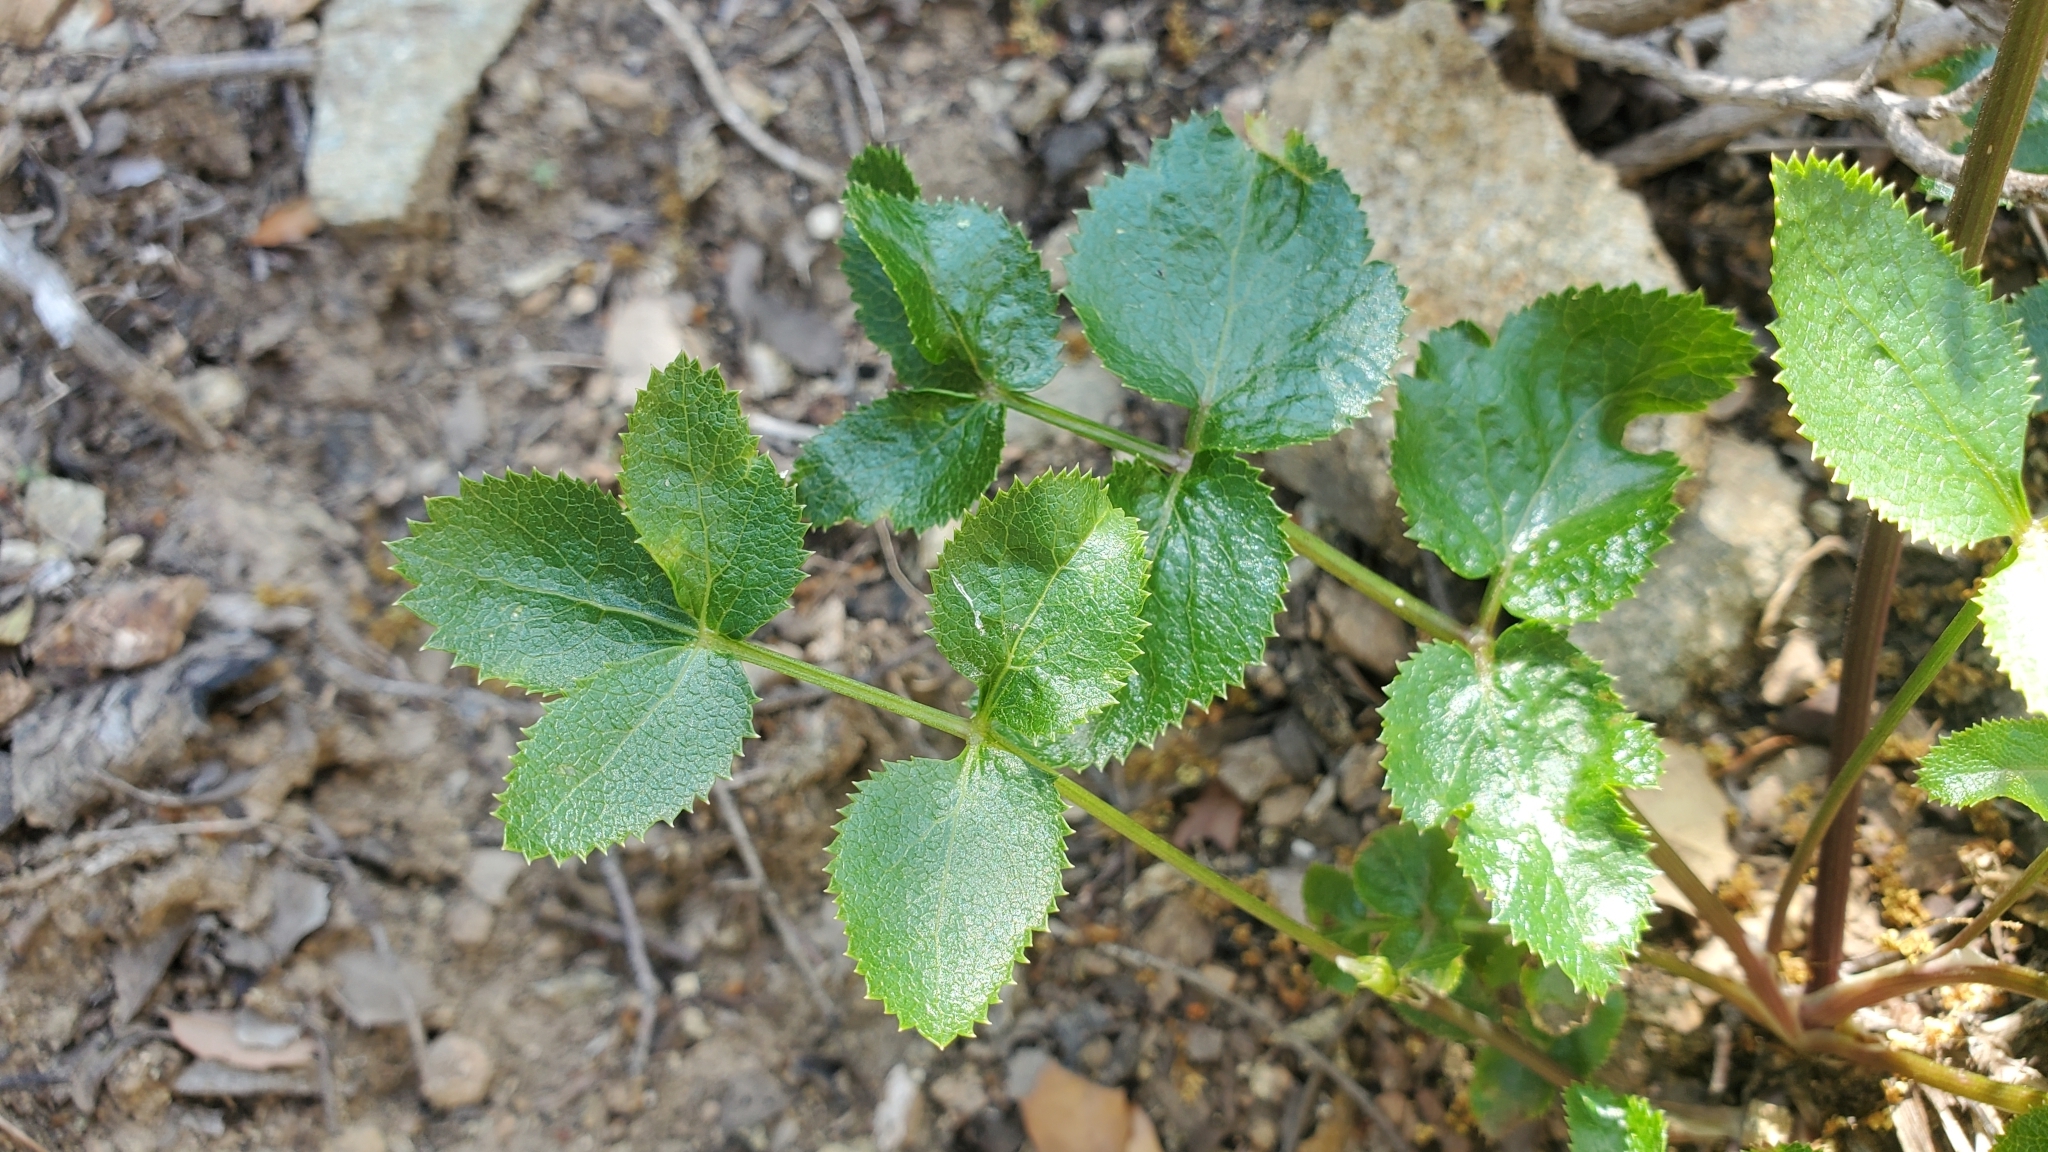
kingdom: Plantae
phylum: Tracheophyta
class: Magnoliopsida
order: Apiales
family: Apiaceae
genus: Tauschia
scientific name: Tauschia arguta
